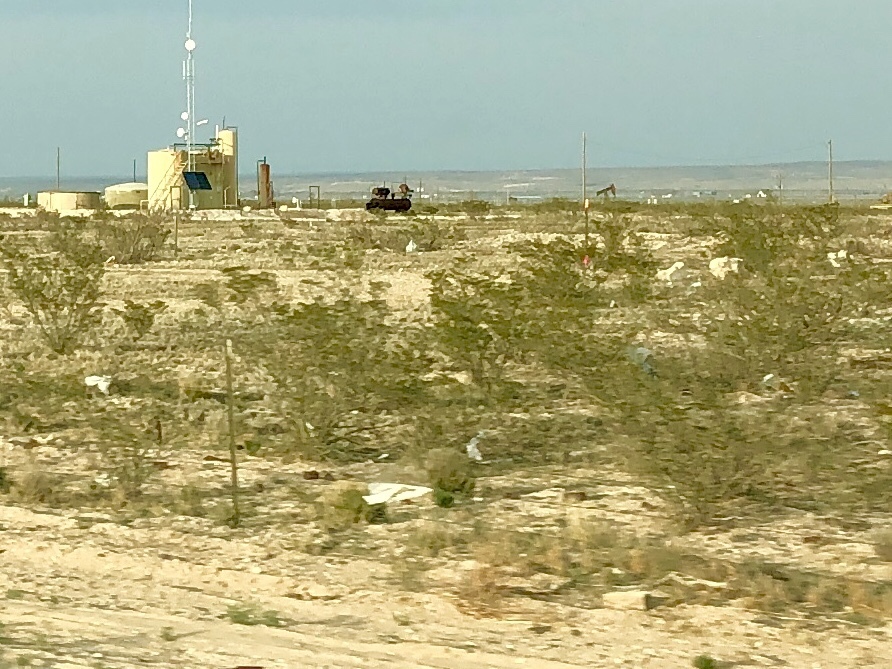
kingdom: Plantae
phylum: Tracheophyta
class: Magnoliopsida
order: Zygophyllales
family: Zygophyllaceae
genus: Larrea
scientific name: Larrea tridentata
